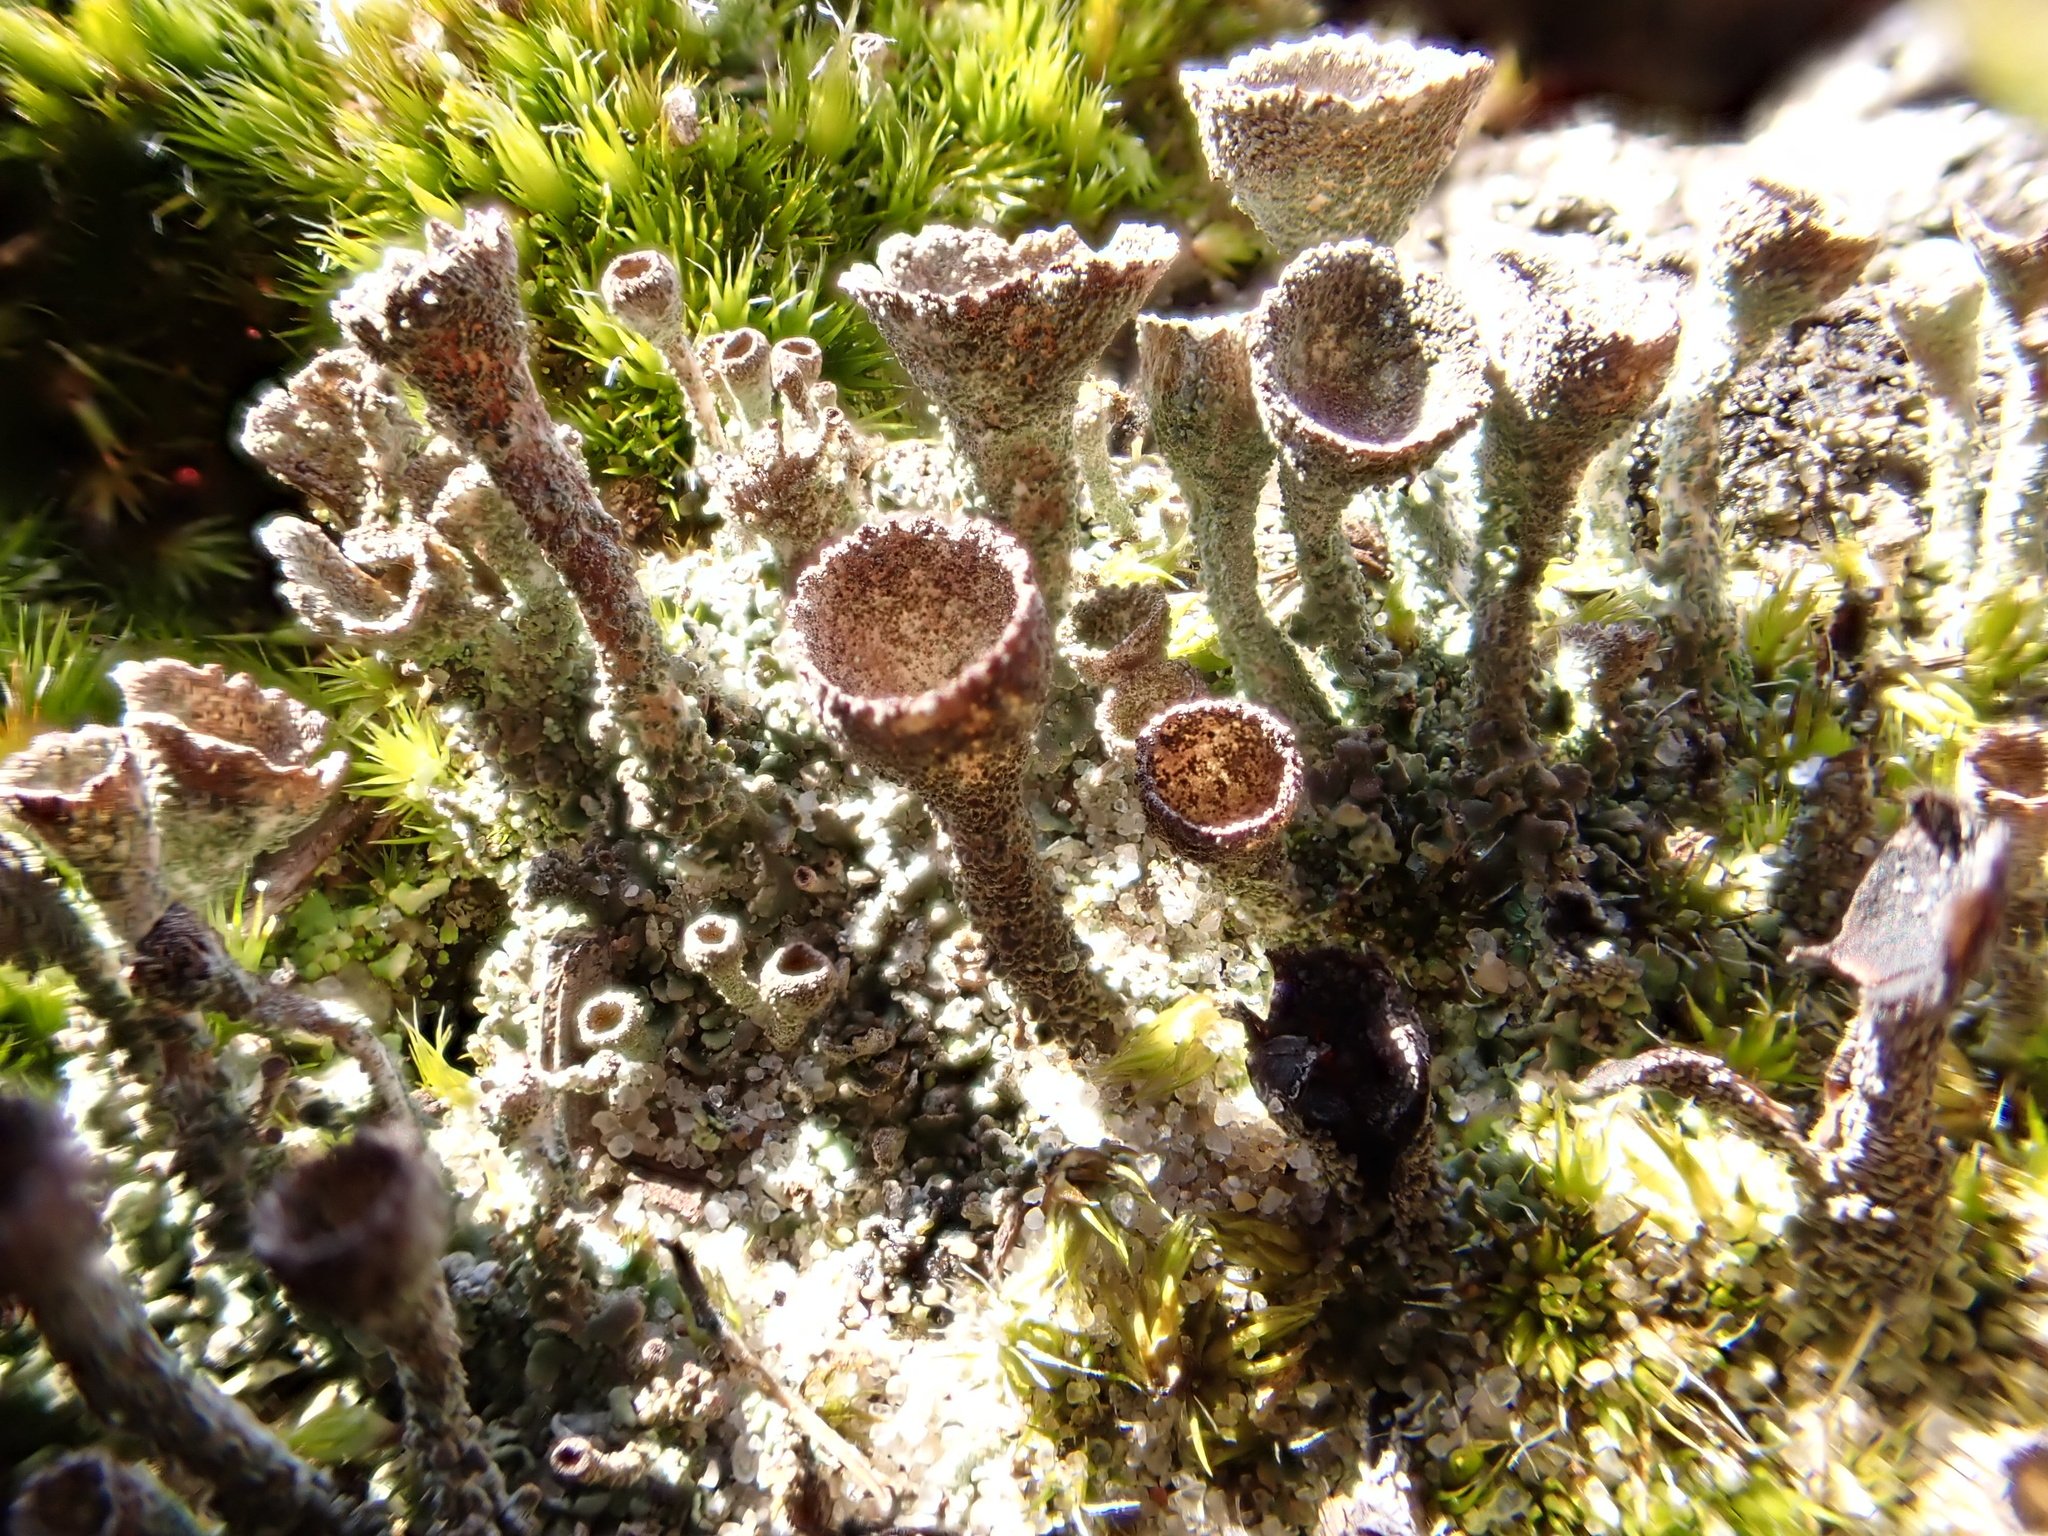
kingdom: Fungi
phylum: Ascomycota
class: Lecanoromycetes
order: Lecanorales
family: Cladoniaceae
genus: Cladonia
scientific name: Cladonia grayi
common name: Gray's cup lichen
